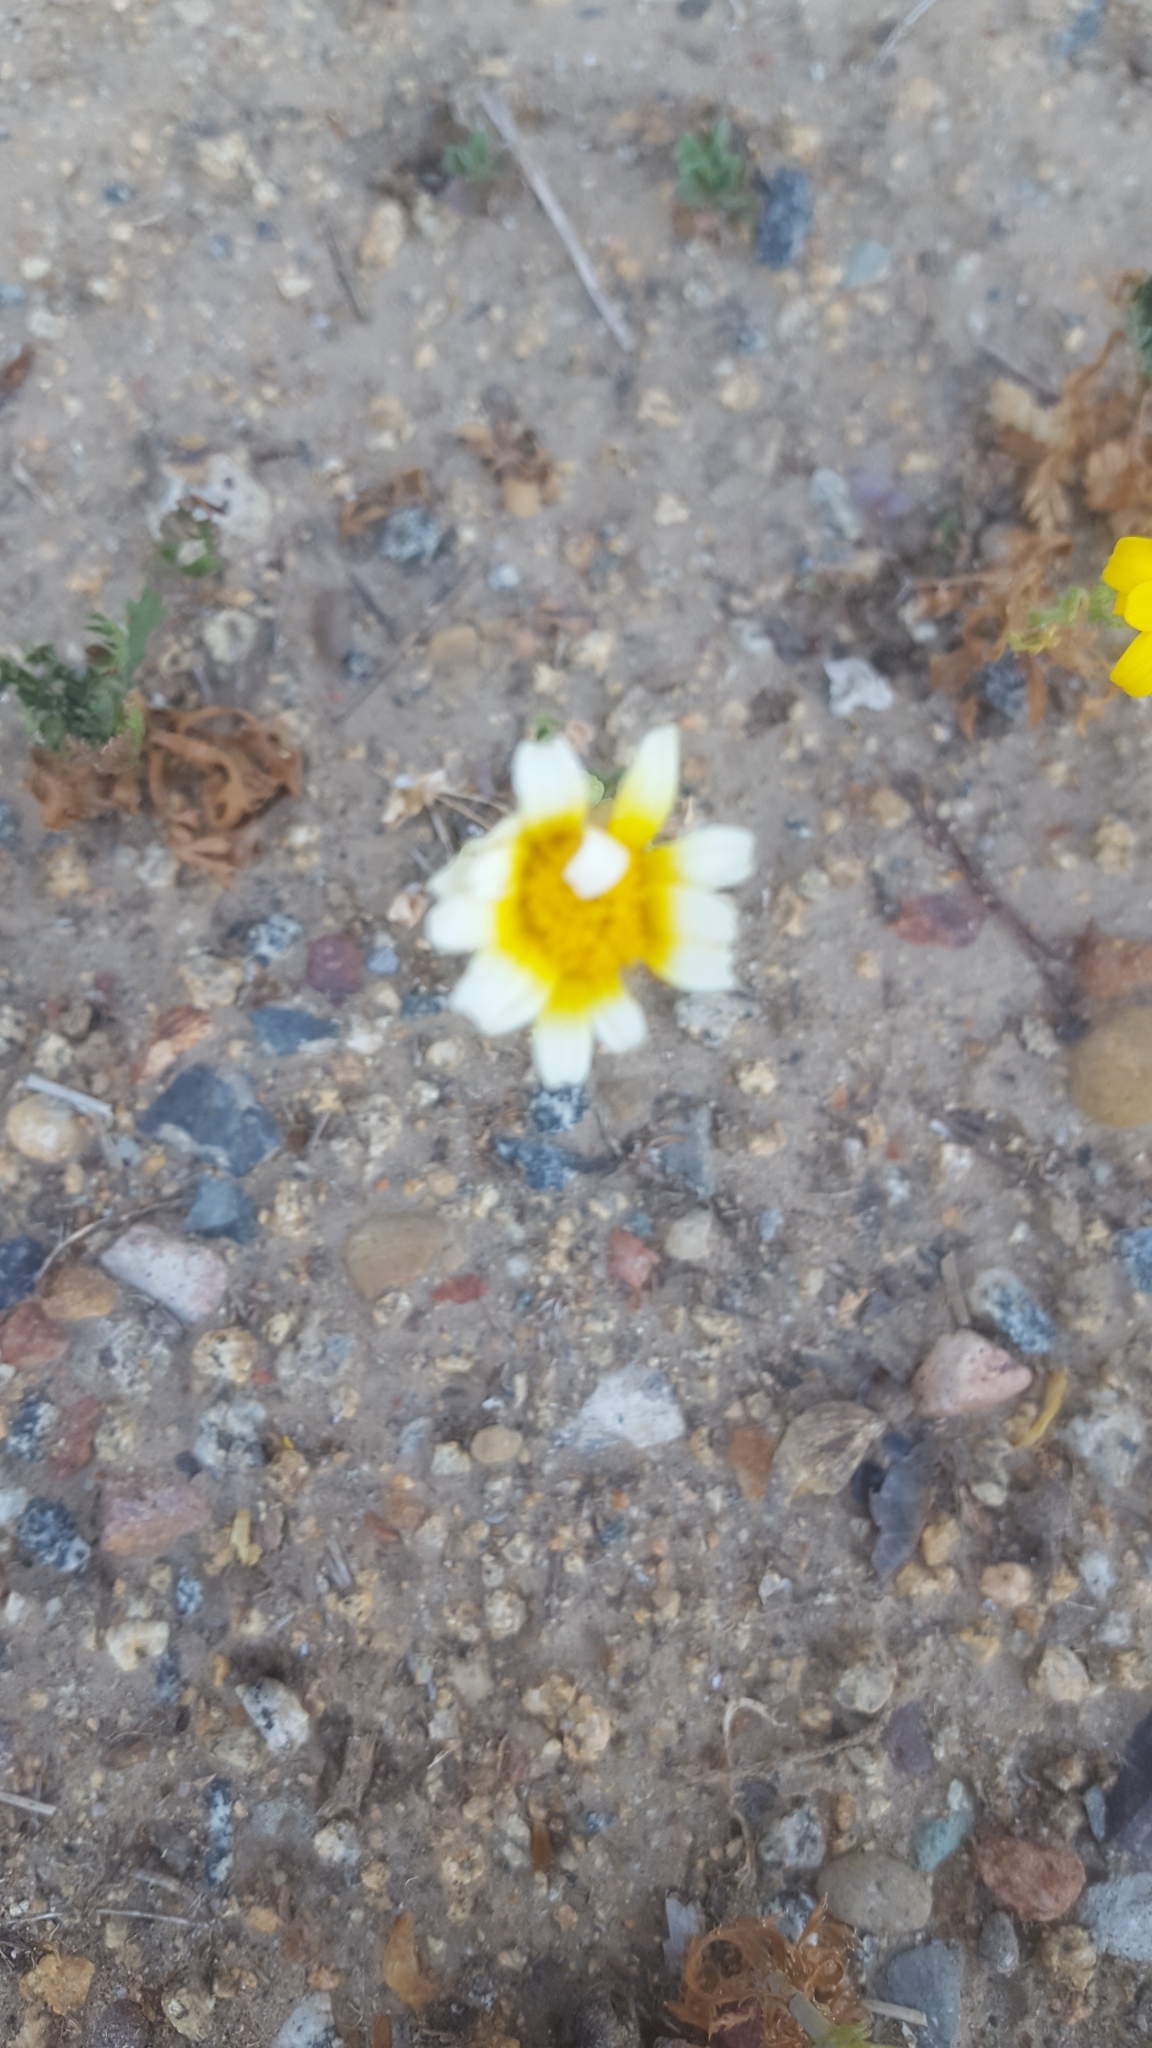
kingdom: Plantae
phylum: Tracheophyta
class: Magnoliopsida
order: Asterales
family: Asteraceae
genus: Glebionis
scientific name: Glebionis coronaria
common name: Crowndaisy
